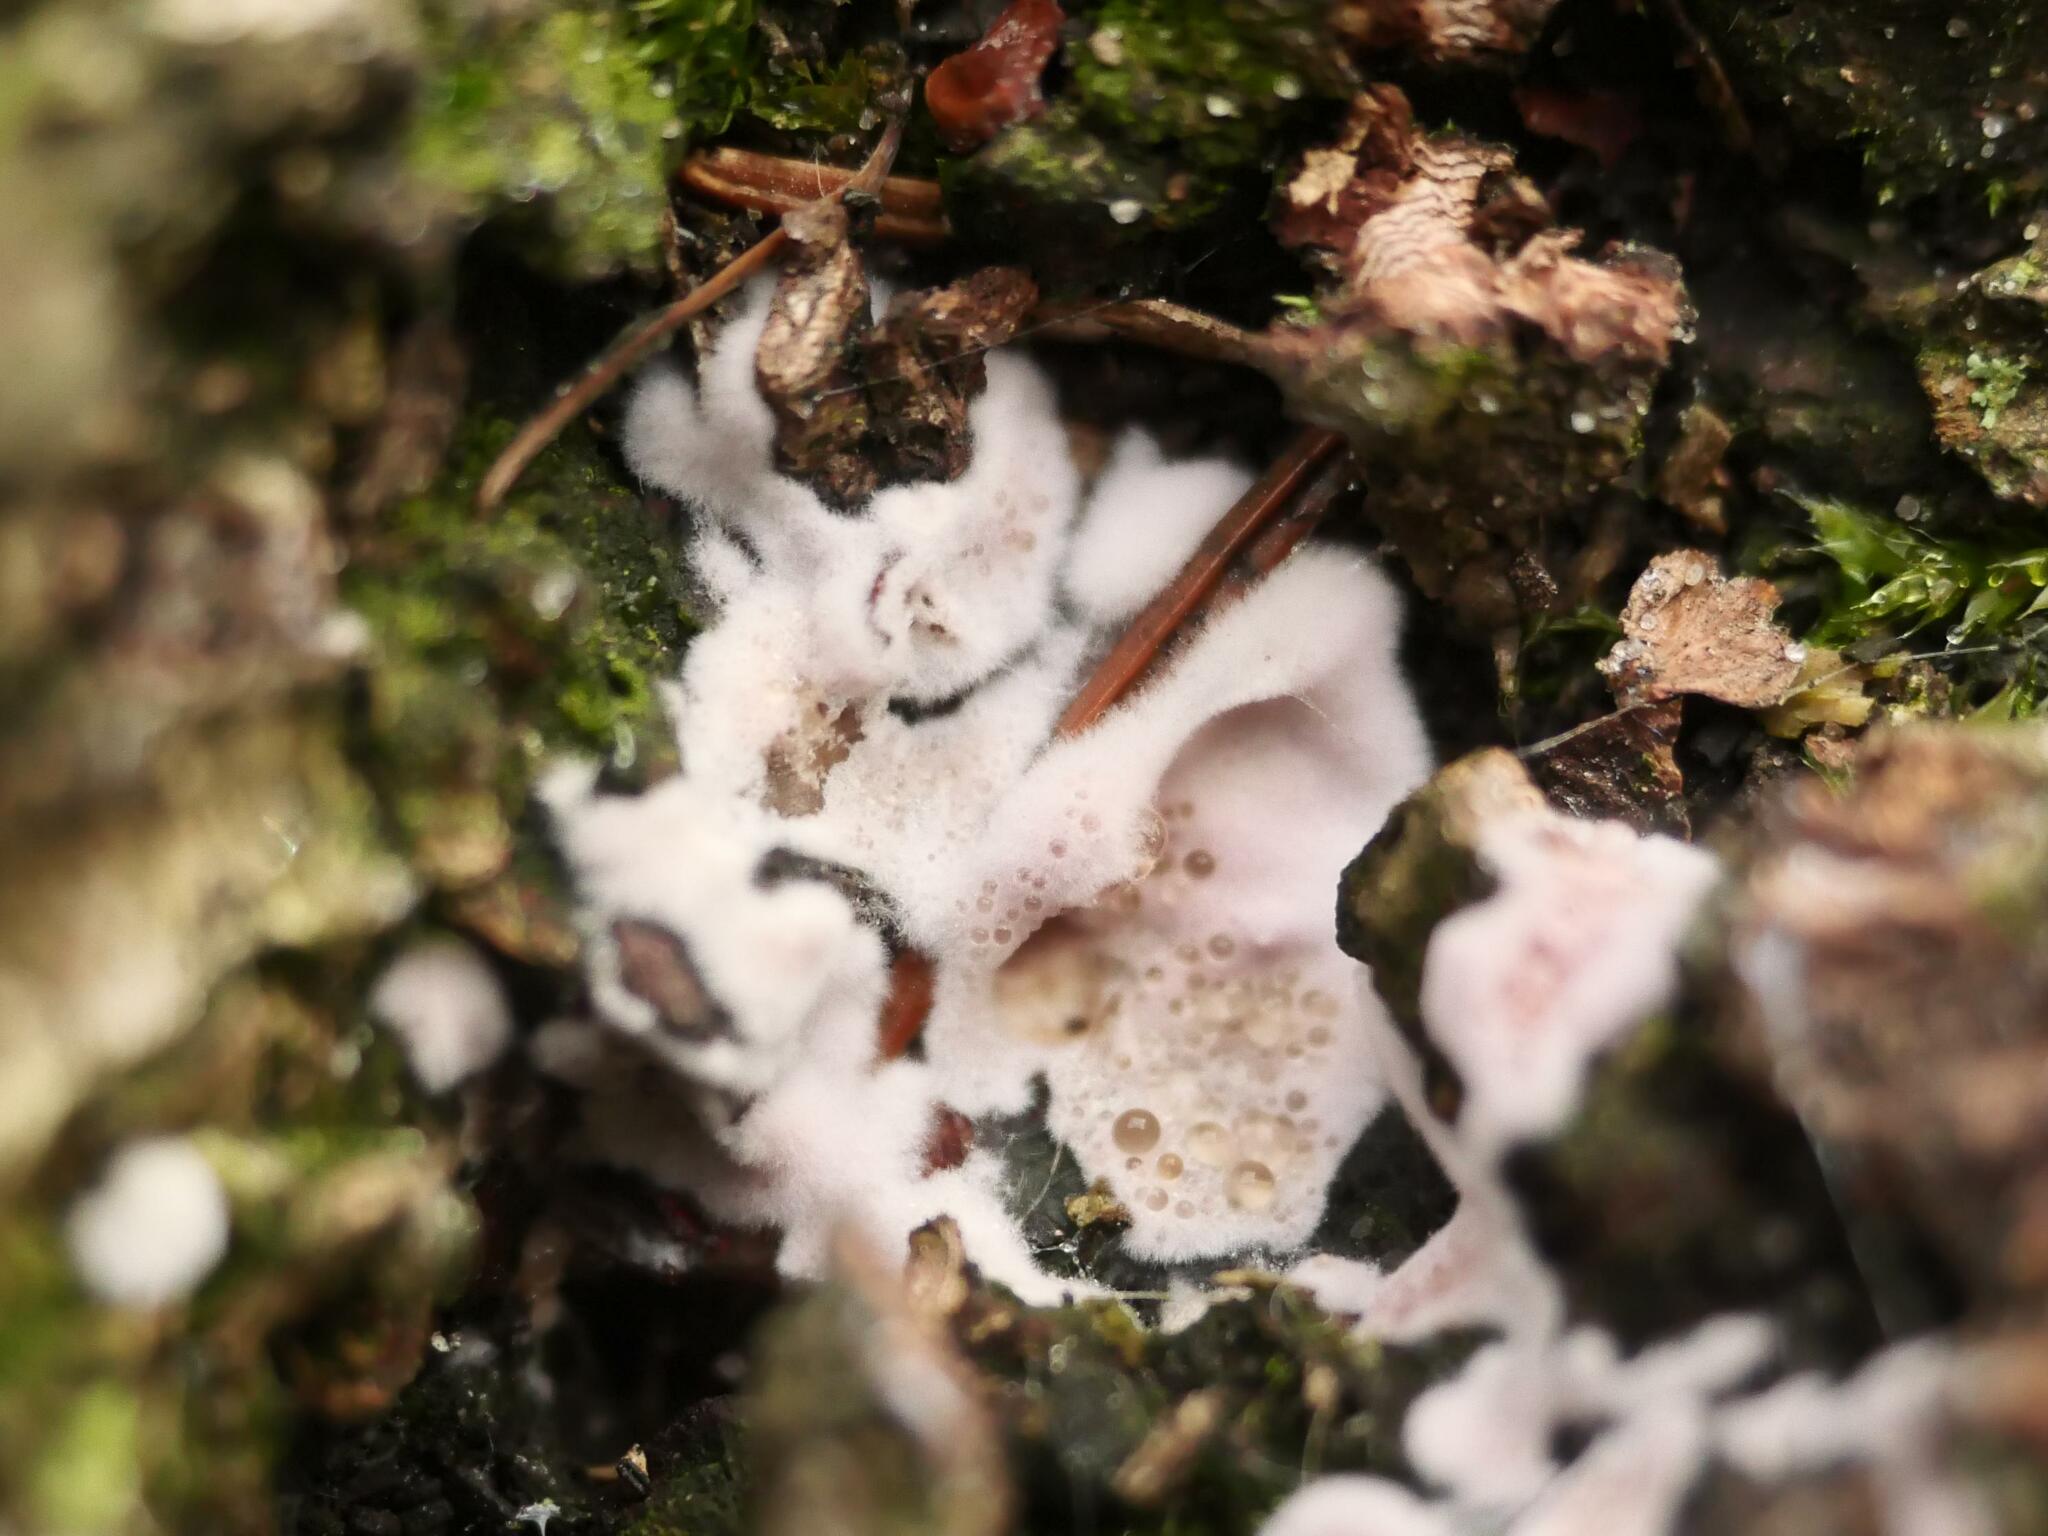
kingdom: Fungi
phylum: Basidiomycota
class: Agaricomycetes
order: Agaricales
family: Cyphellaceae
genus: Chondrostereum
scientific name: Chondrostereum purpureum
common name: Silver leaf disease
